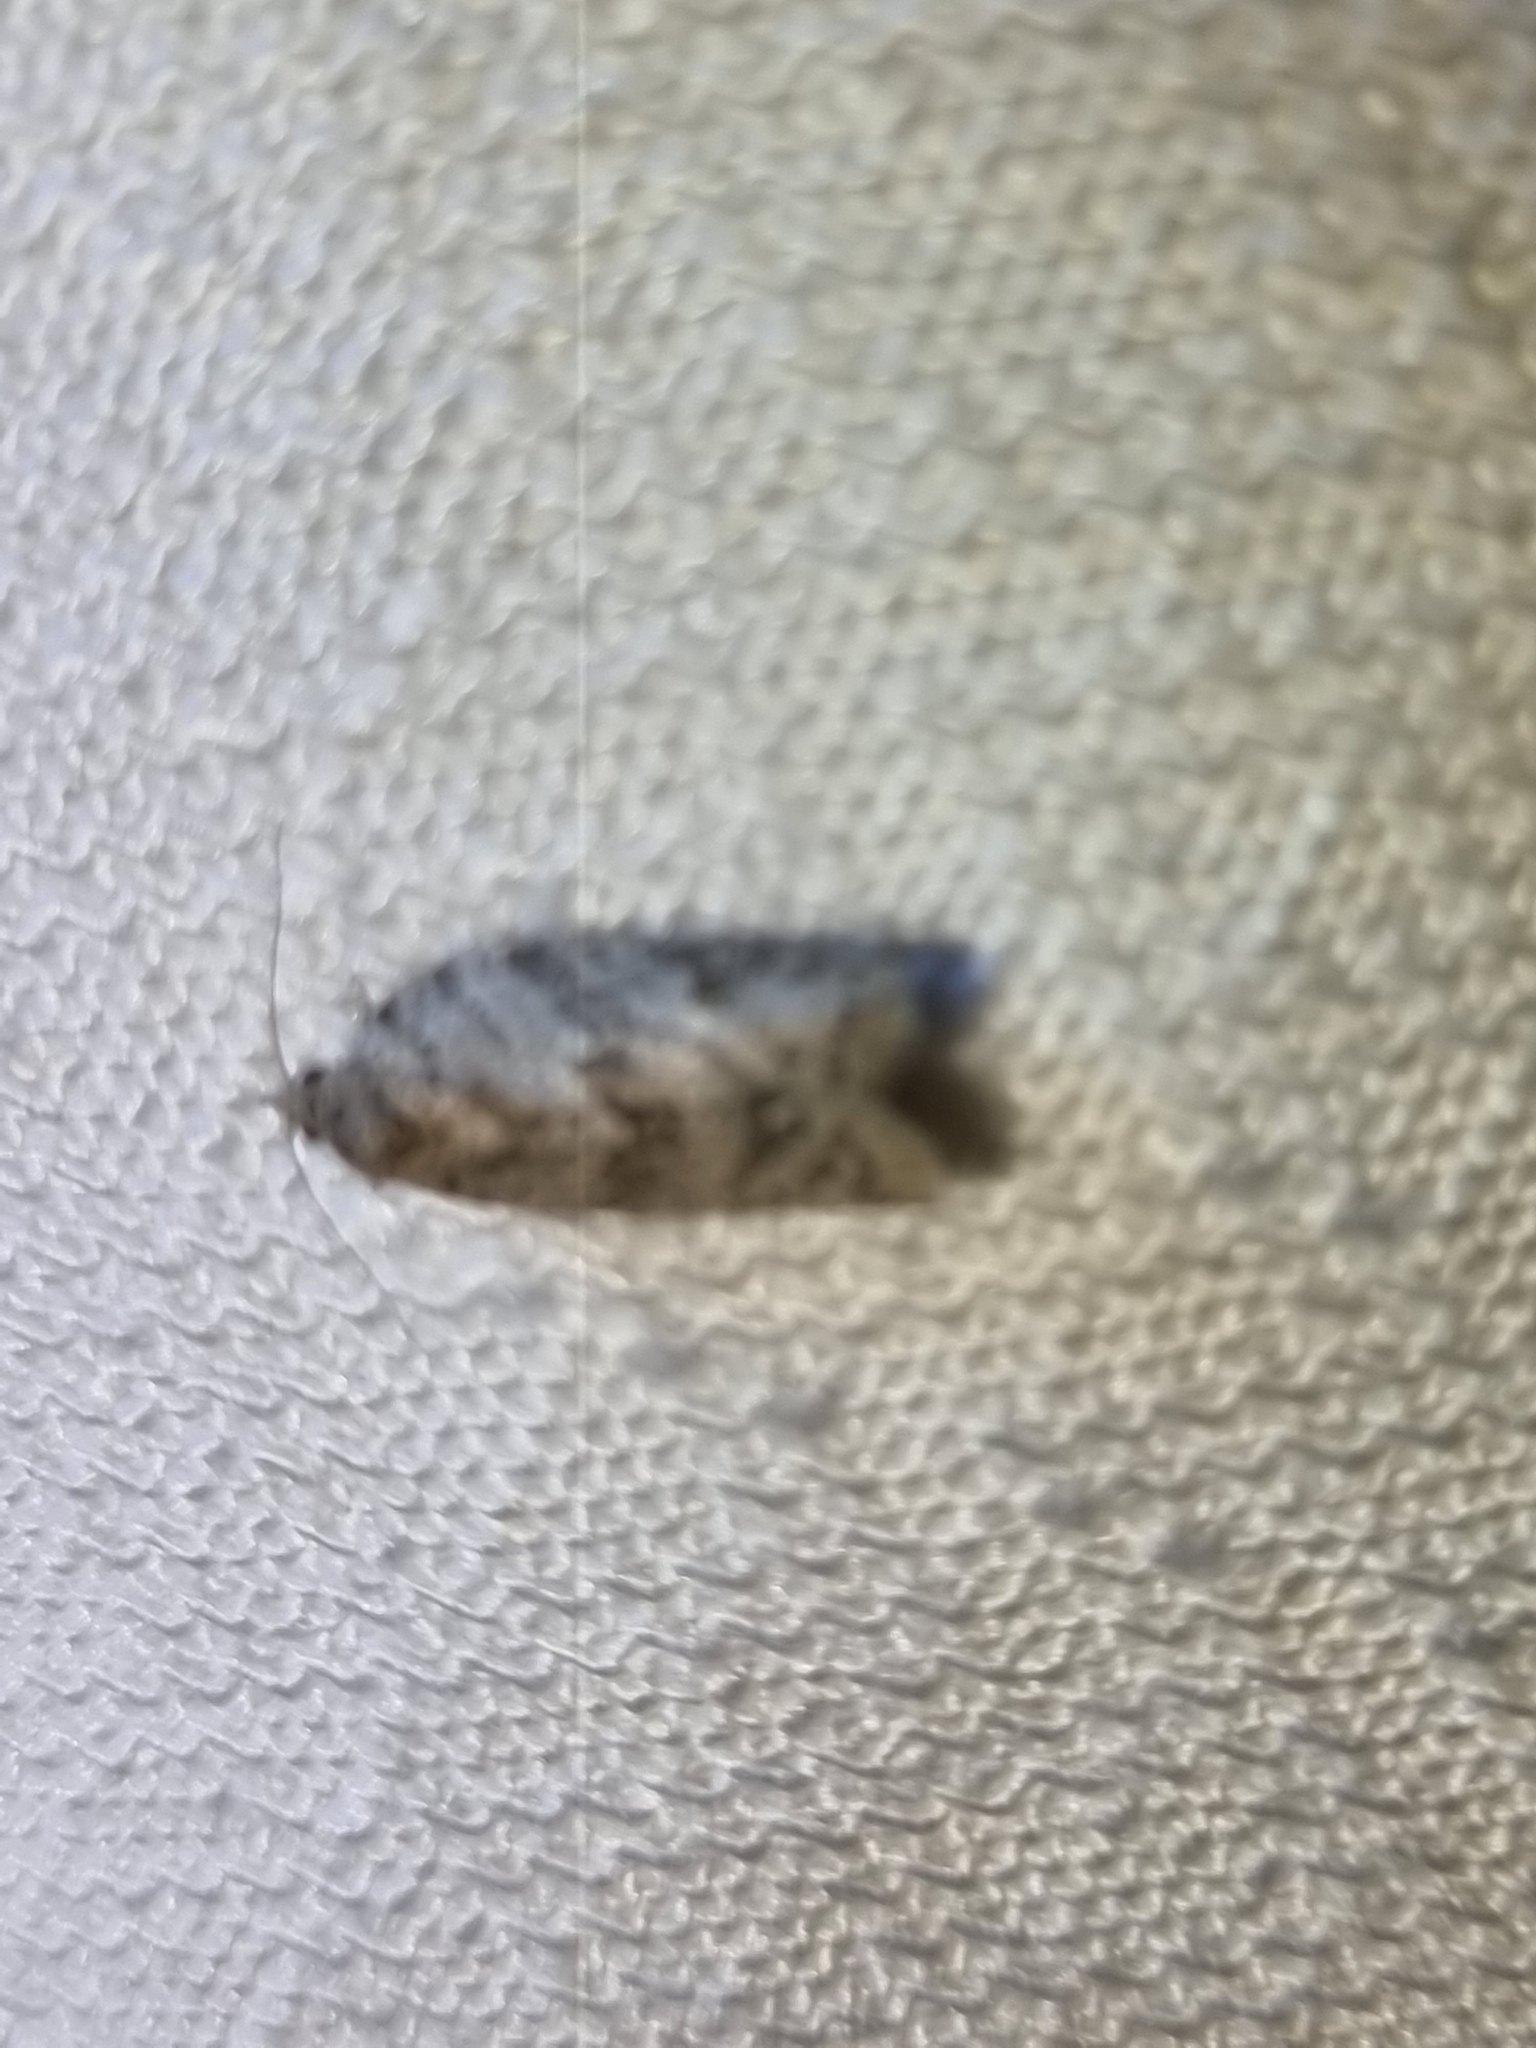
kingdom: Animalia
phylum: Arthropoda
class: Insecta
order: Lepidoptera
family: Tortricidae
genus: Isotenes
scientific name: Isotenes miserana
